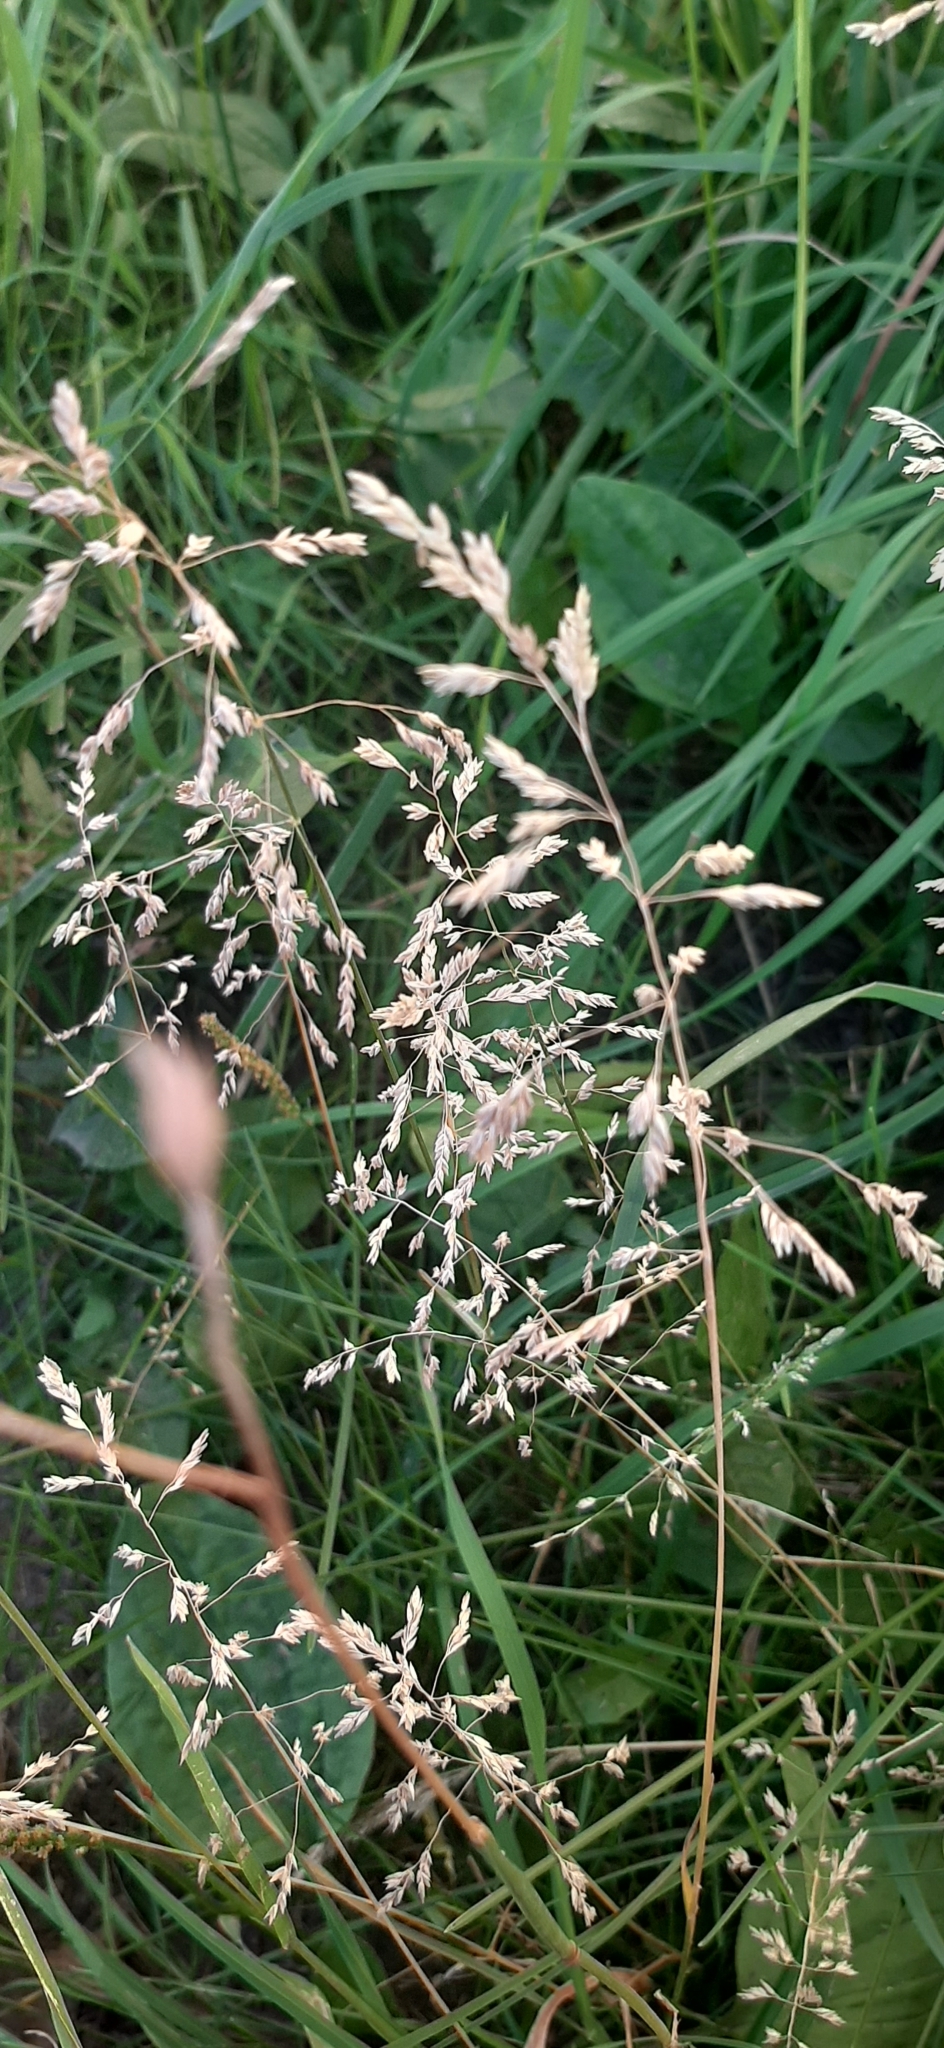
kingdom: Plantae
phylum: Tracheophyta
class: Liliopsida
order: Poales
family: Poaceae
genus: Poa
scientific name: Poa pratensis
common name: Kentucky bluegrass
